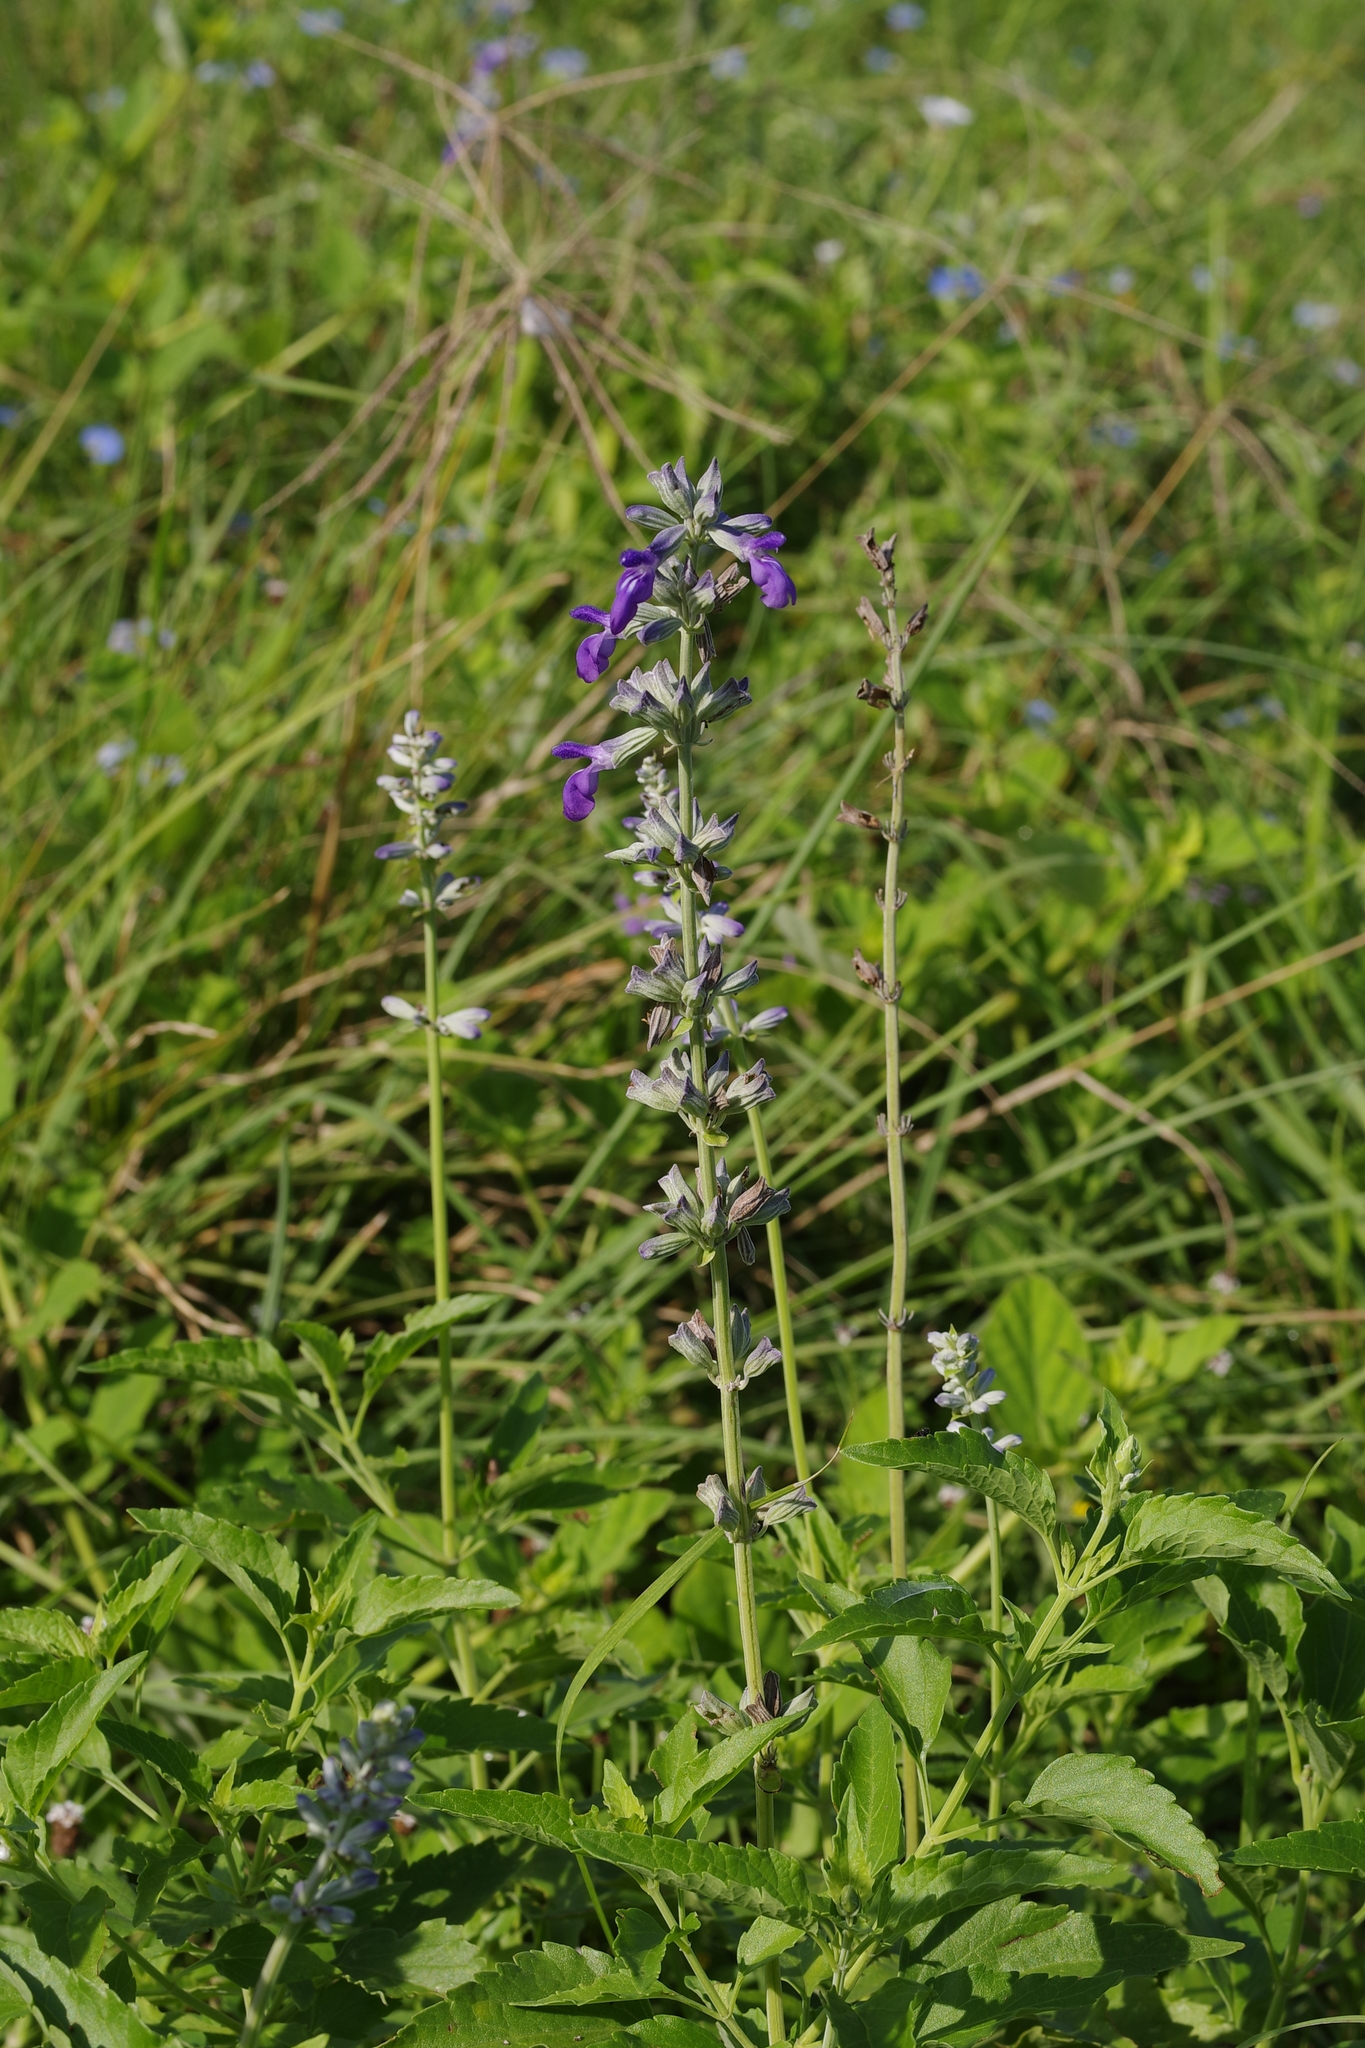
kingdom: Plantae
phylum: Tracheophyta
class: Magnoliopsida
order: Lamiales
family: Lamiaceae
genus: Salvia
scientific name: Salvia farinacea
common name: Mealy sage
